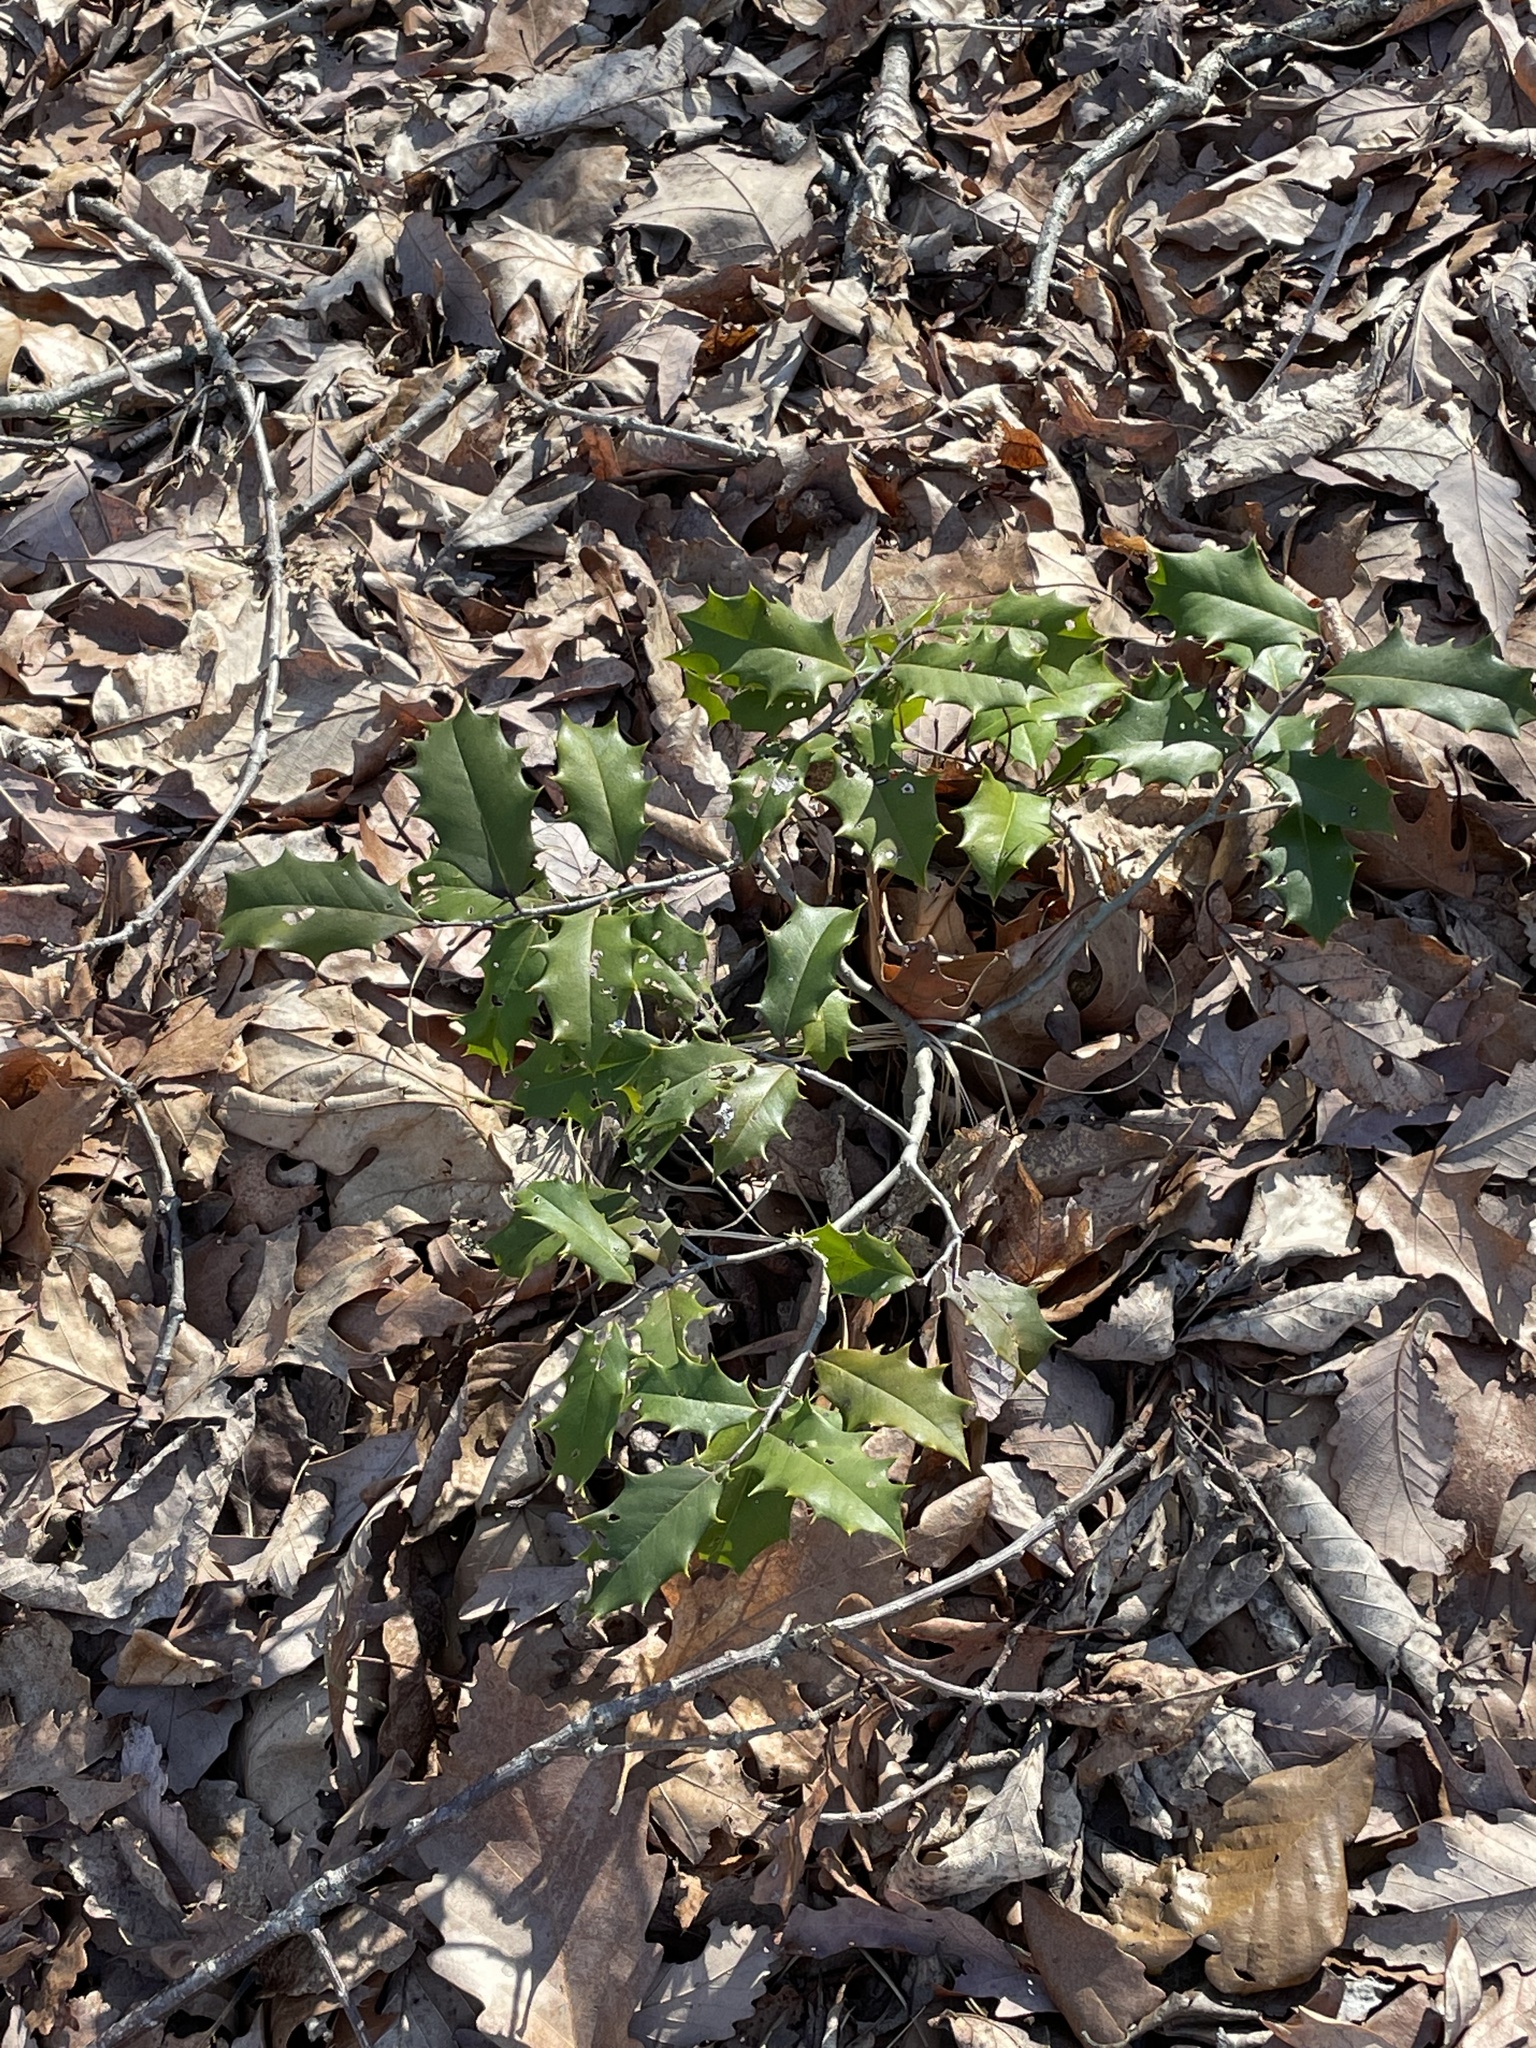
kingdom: Plantae
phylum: Tracheophyta
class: Magnoliopsida
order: Aquifoliales
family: Aquifoliaceae
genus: Ilex
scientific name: Ilex opaca
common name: American holly
